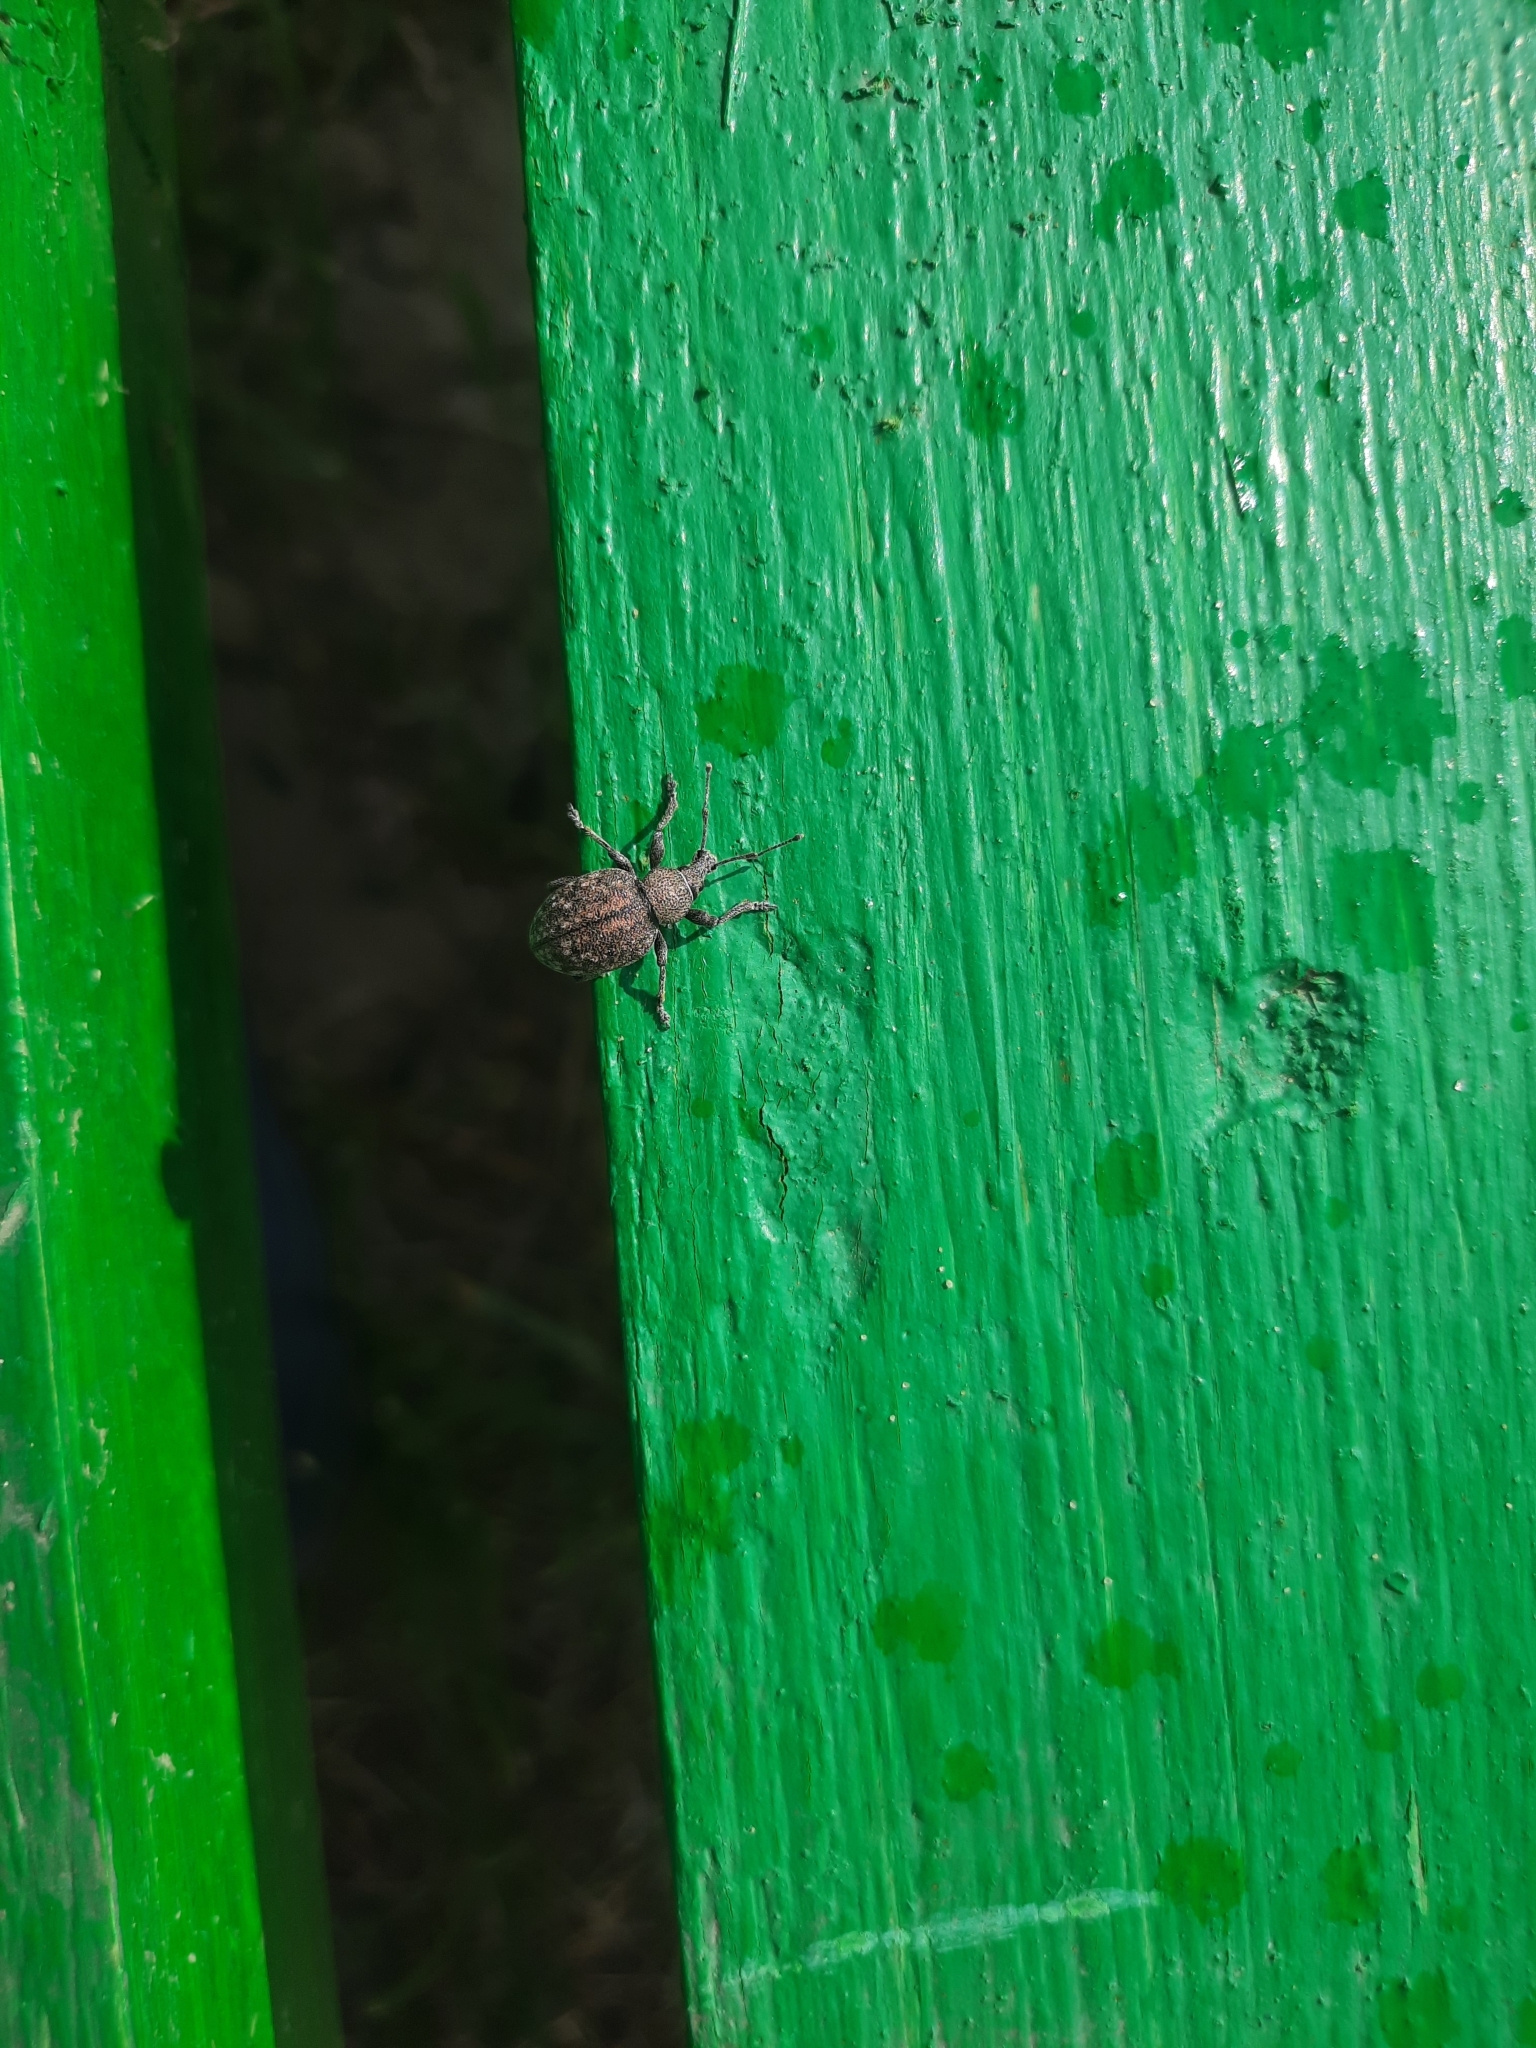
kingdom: Animalia
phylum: Arthropoda
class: Insecta
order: Coleoptera
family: Curculionidae
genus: Otiorhynchus
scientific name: Otiorhynchus ligustici
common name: Weevil
